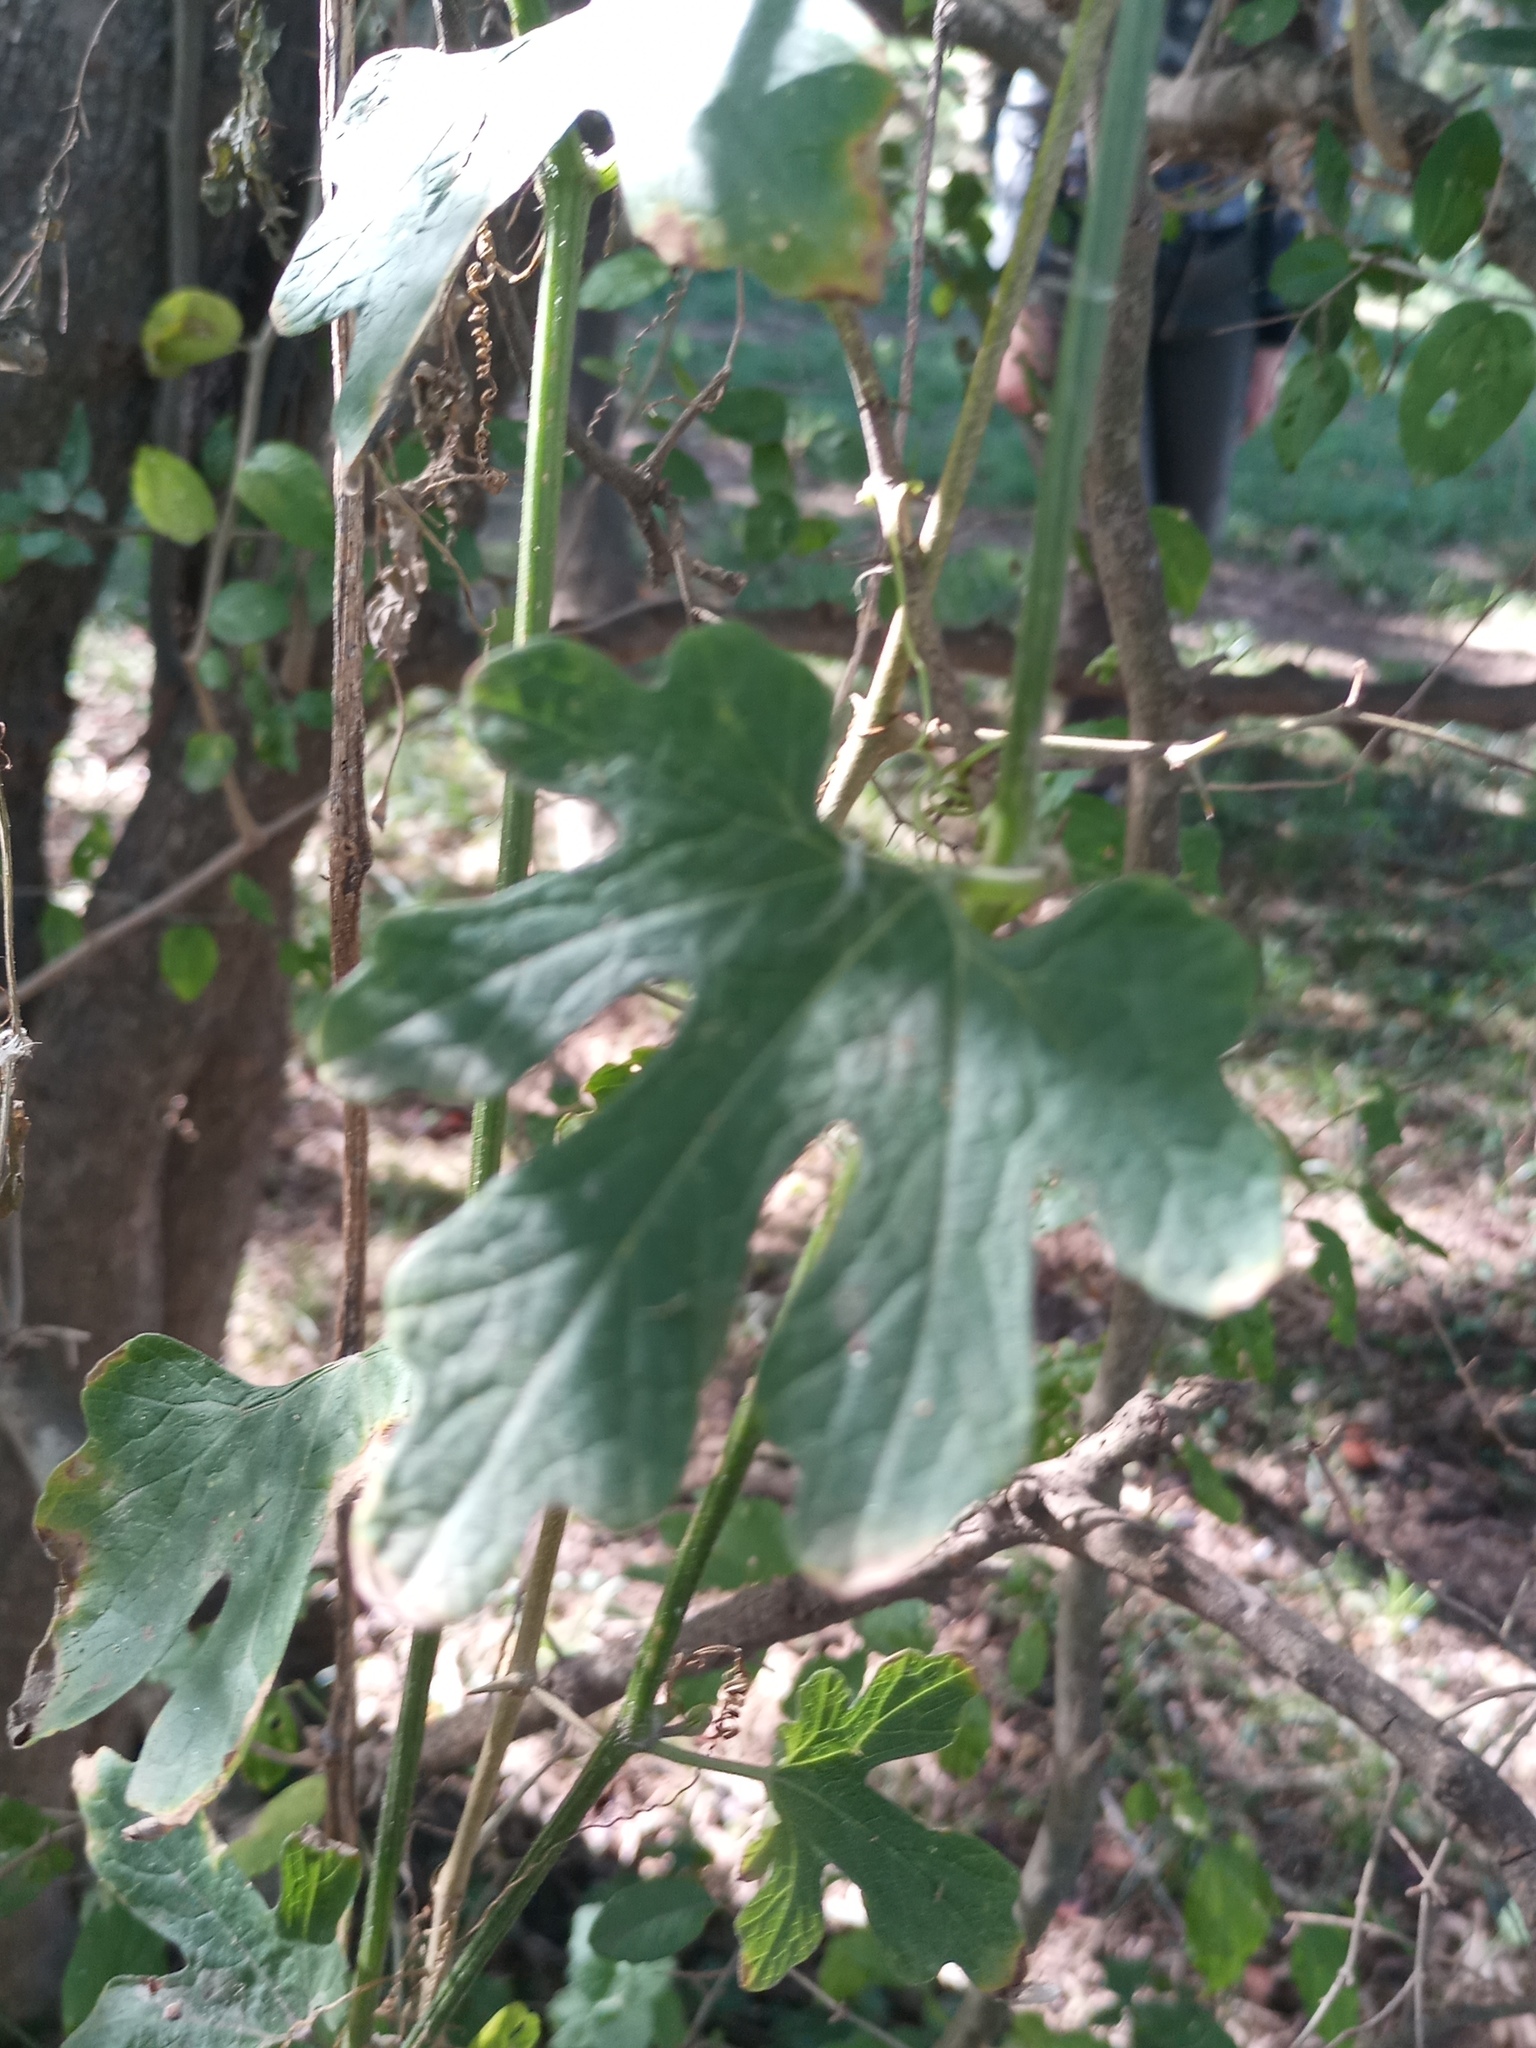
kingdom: Plantae
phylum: Tracheophyta
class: Magnoliopsida
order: Cucurbitales
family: Cucurbitaceae
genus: Cayaponia
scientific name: Cayaponia bonariensis
